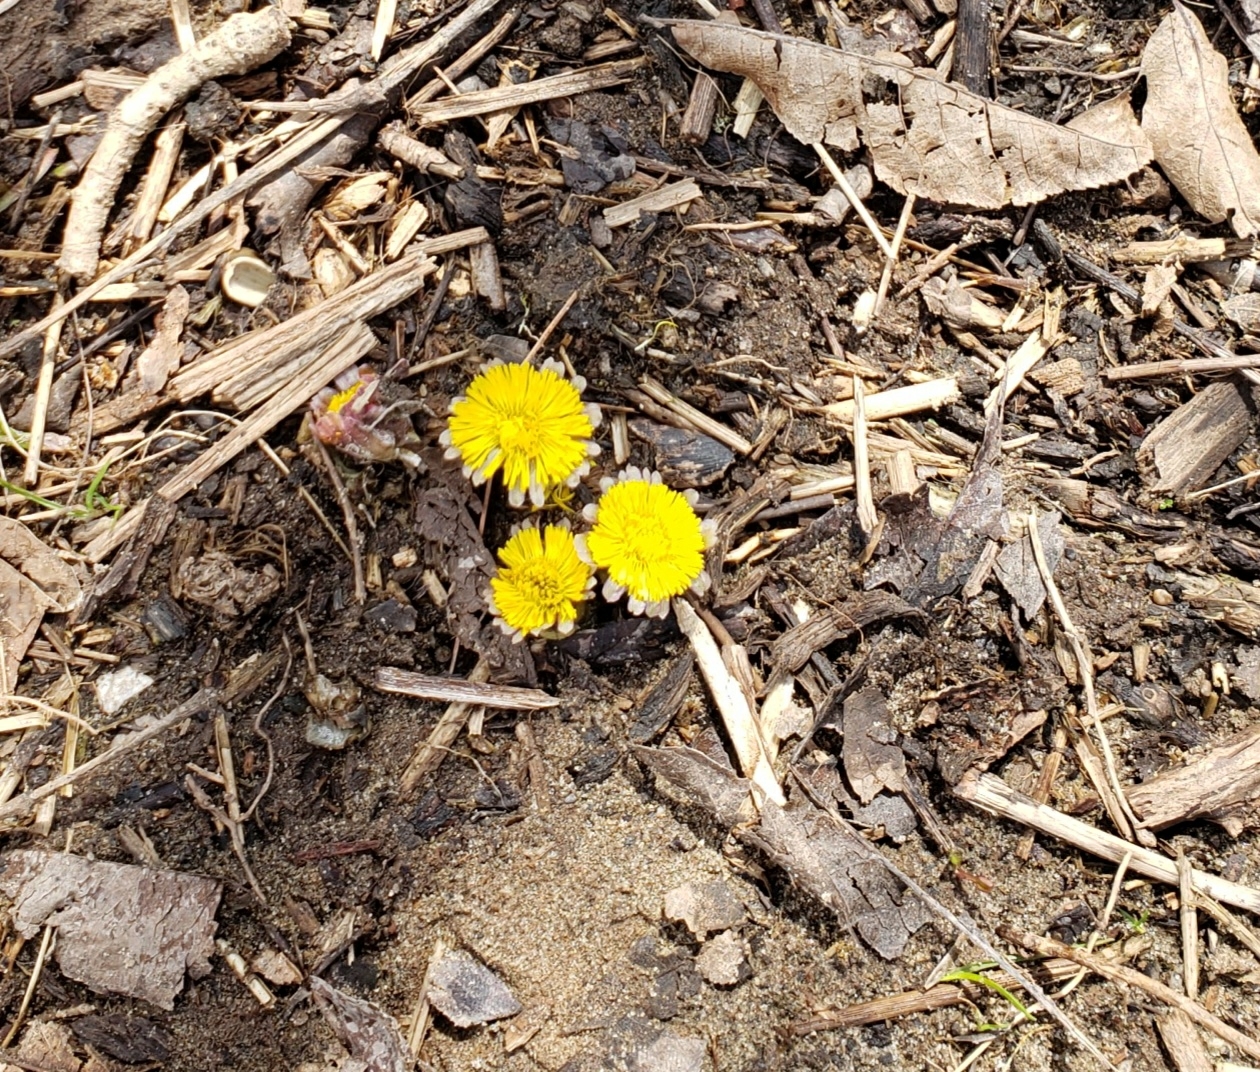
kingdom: Plantae
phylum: Tracheophyta
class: Magnoliopsida
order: Asterales
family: Asteraceae
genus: Tussilago
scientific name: Tussilago farfara
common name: Coltsfoot
